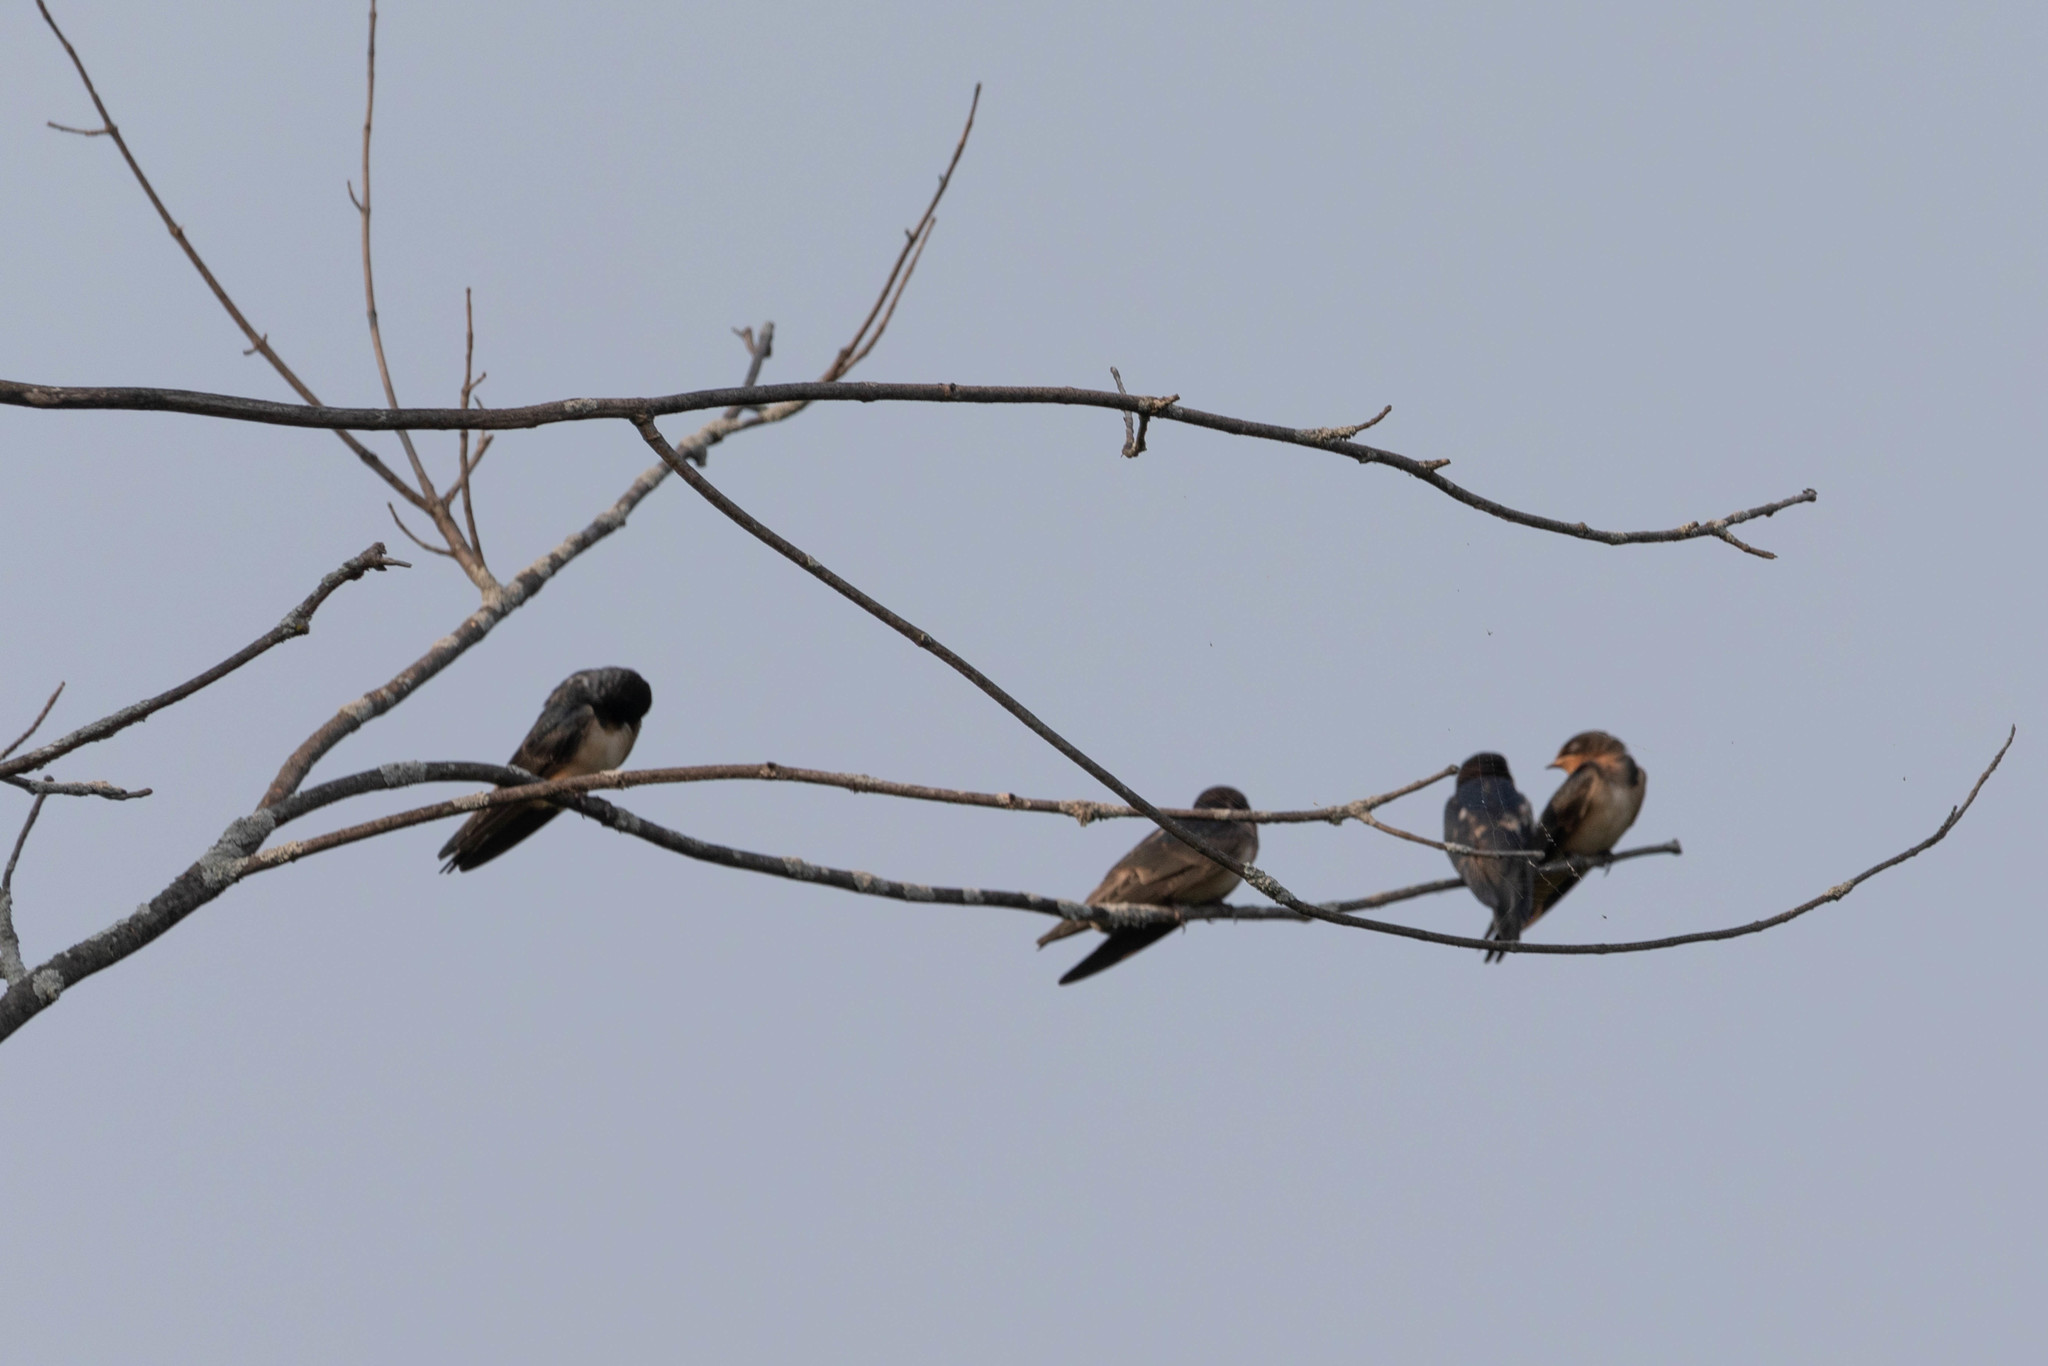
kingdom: Animalia
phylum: Chordata
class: Aves
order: Passeriformes
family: Hirundinidae
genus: Hirundo
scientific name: Hirundo rustica
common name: Barn swallow
